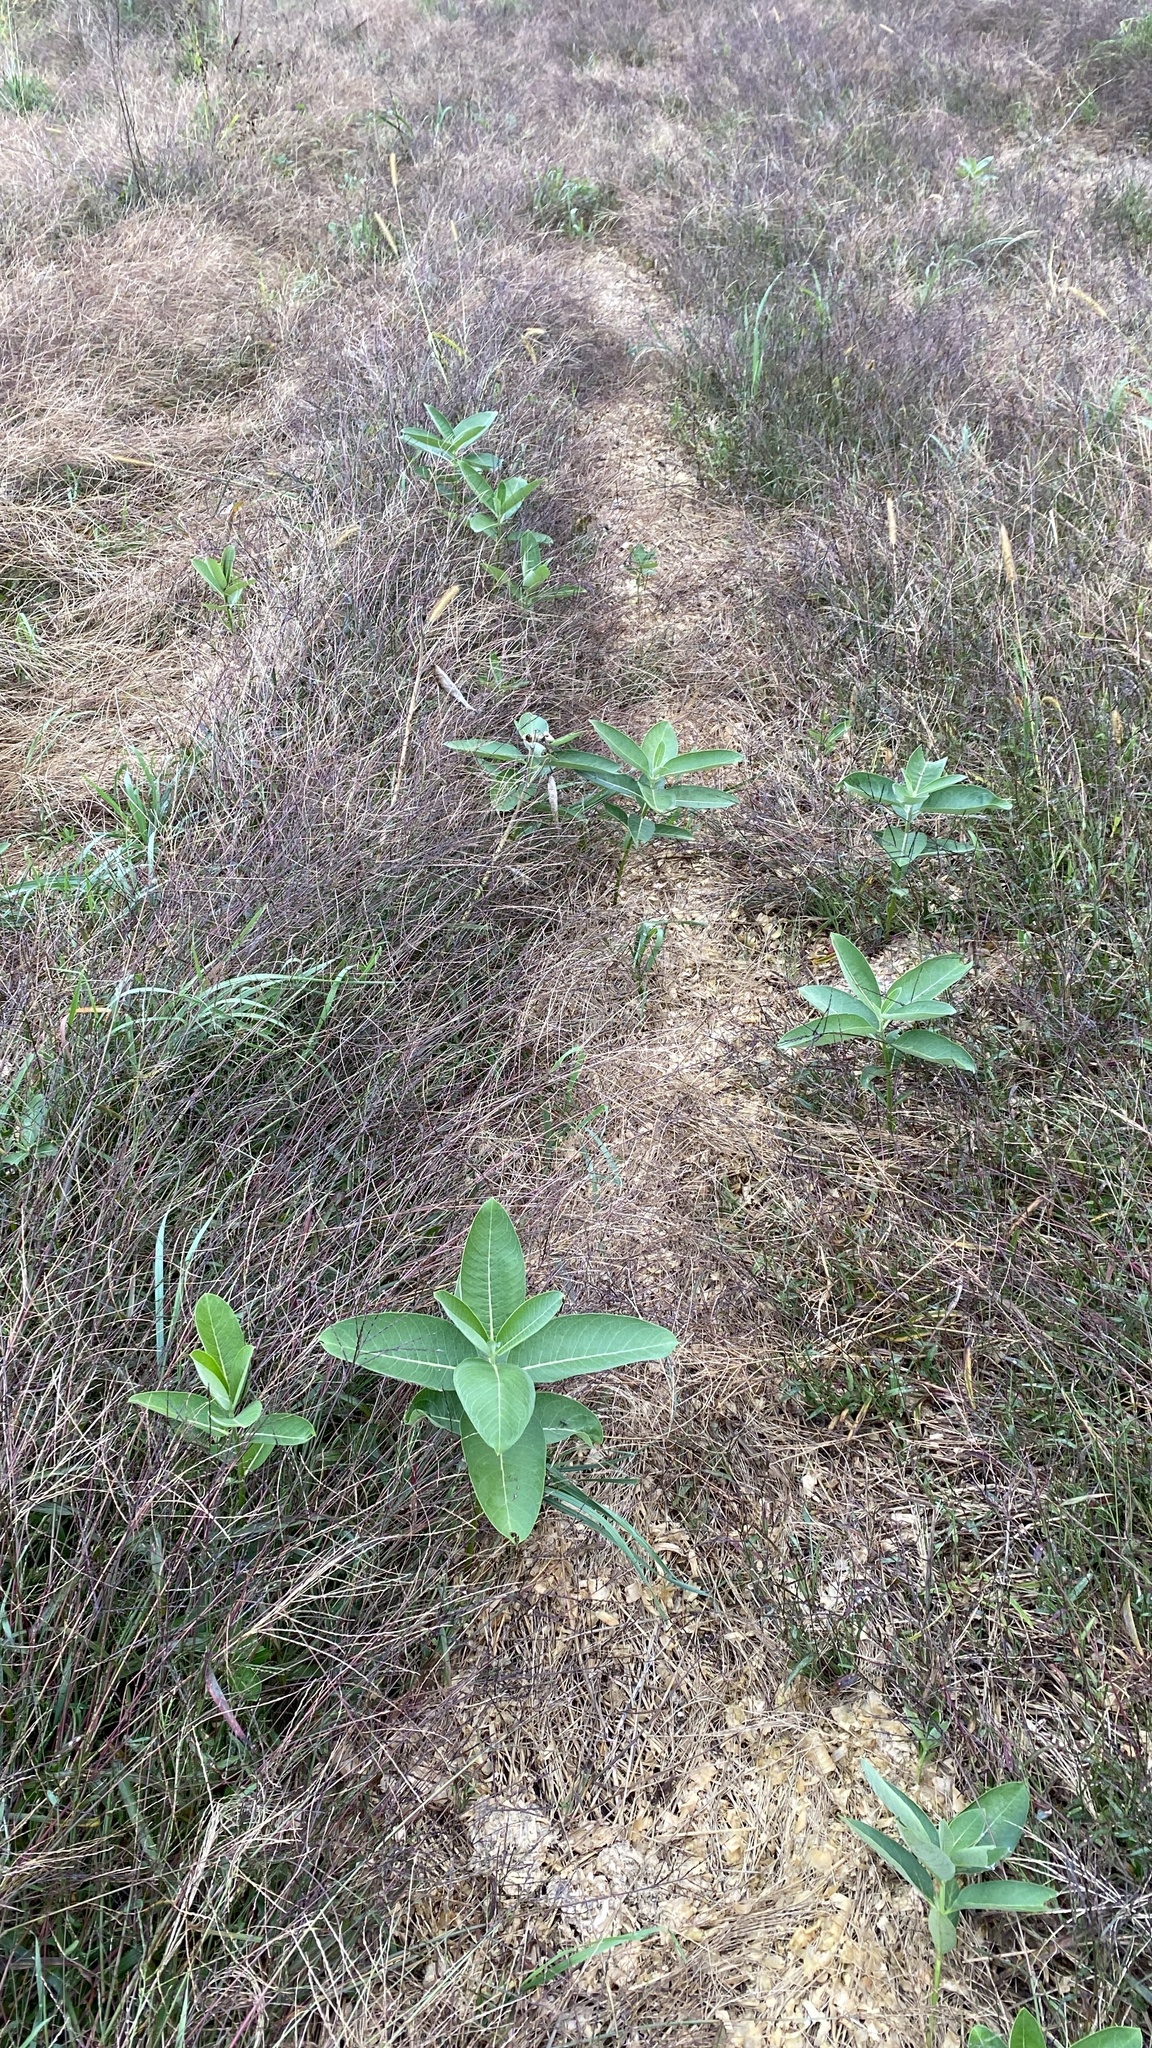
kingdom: Plantae
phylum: Tracheophyta
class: Magnoliopsida
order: Gentianales
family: Apocynaceae
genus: Asclepias
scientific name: Asclepias syriaca
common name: Common milkweed
